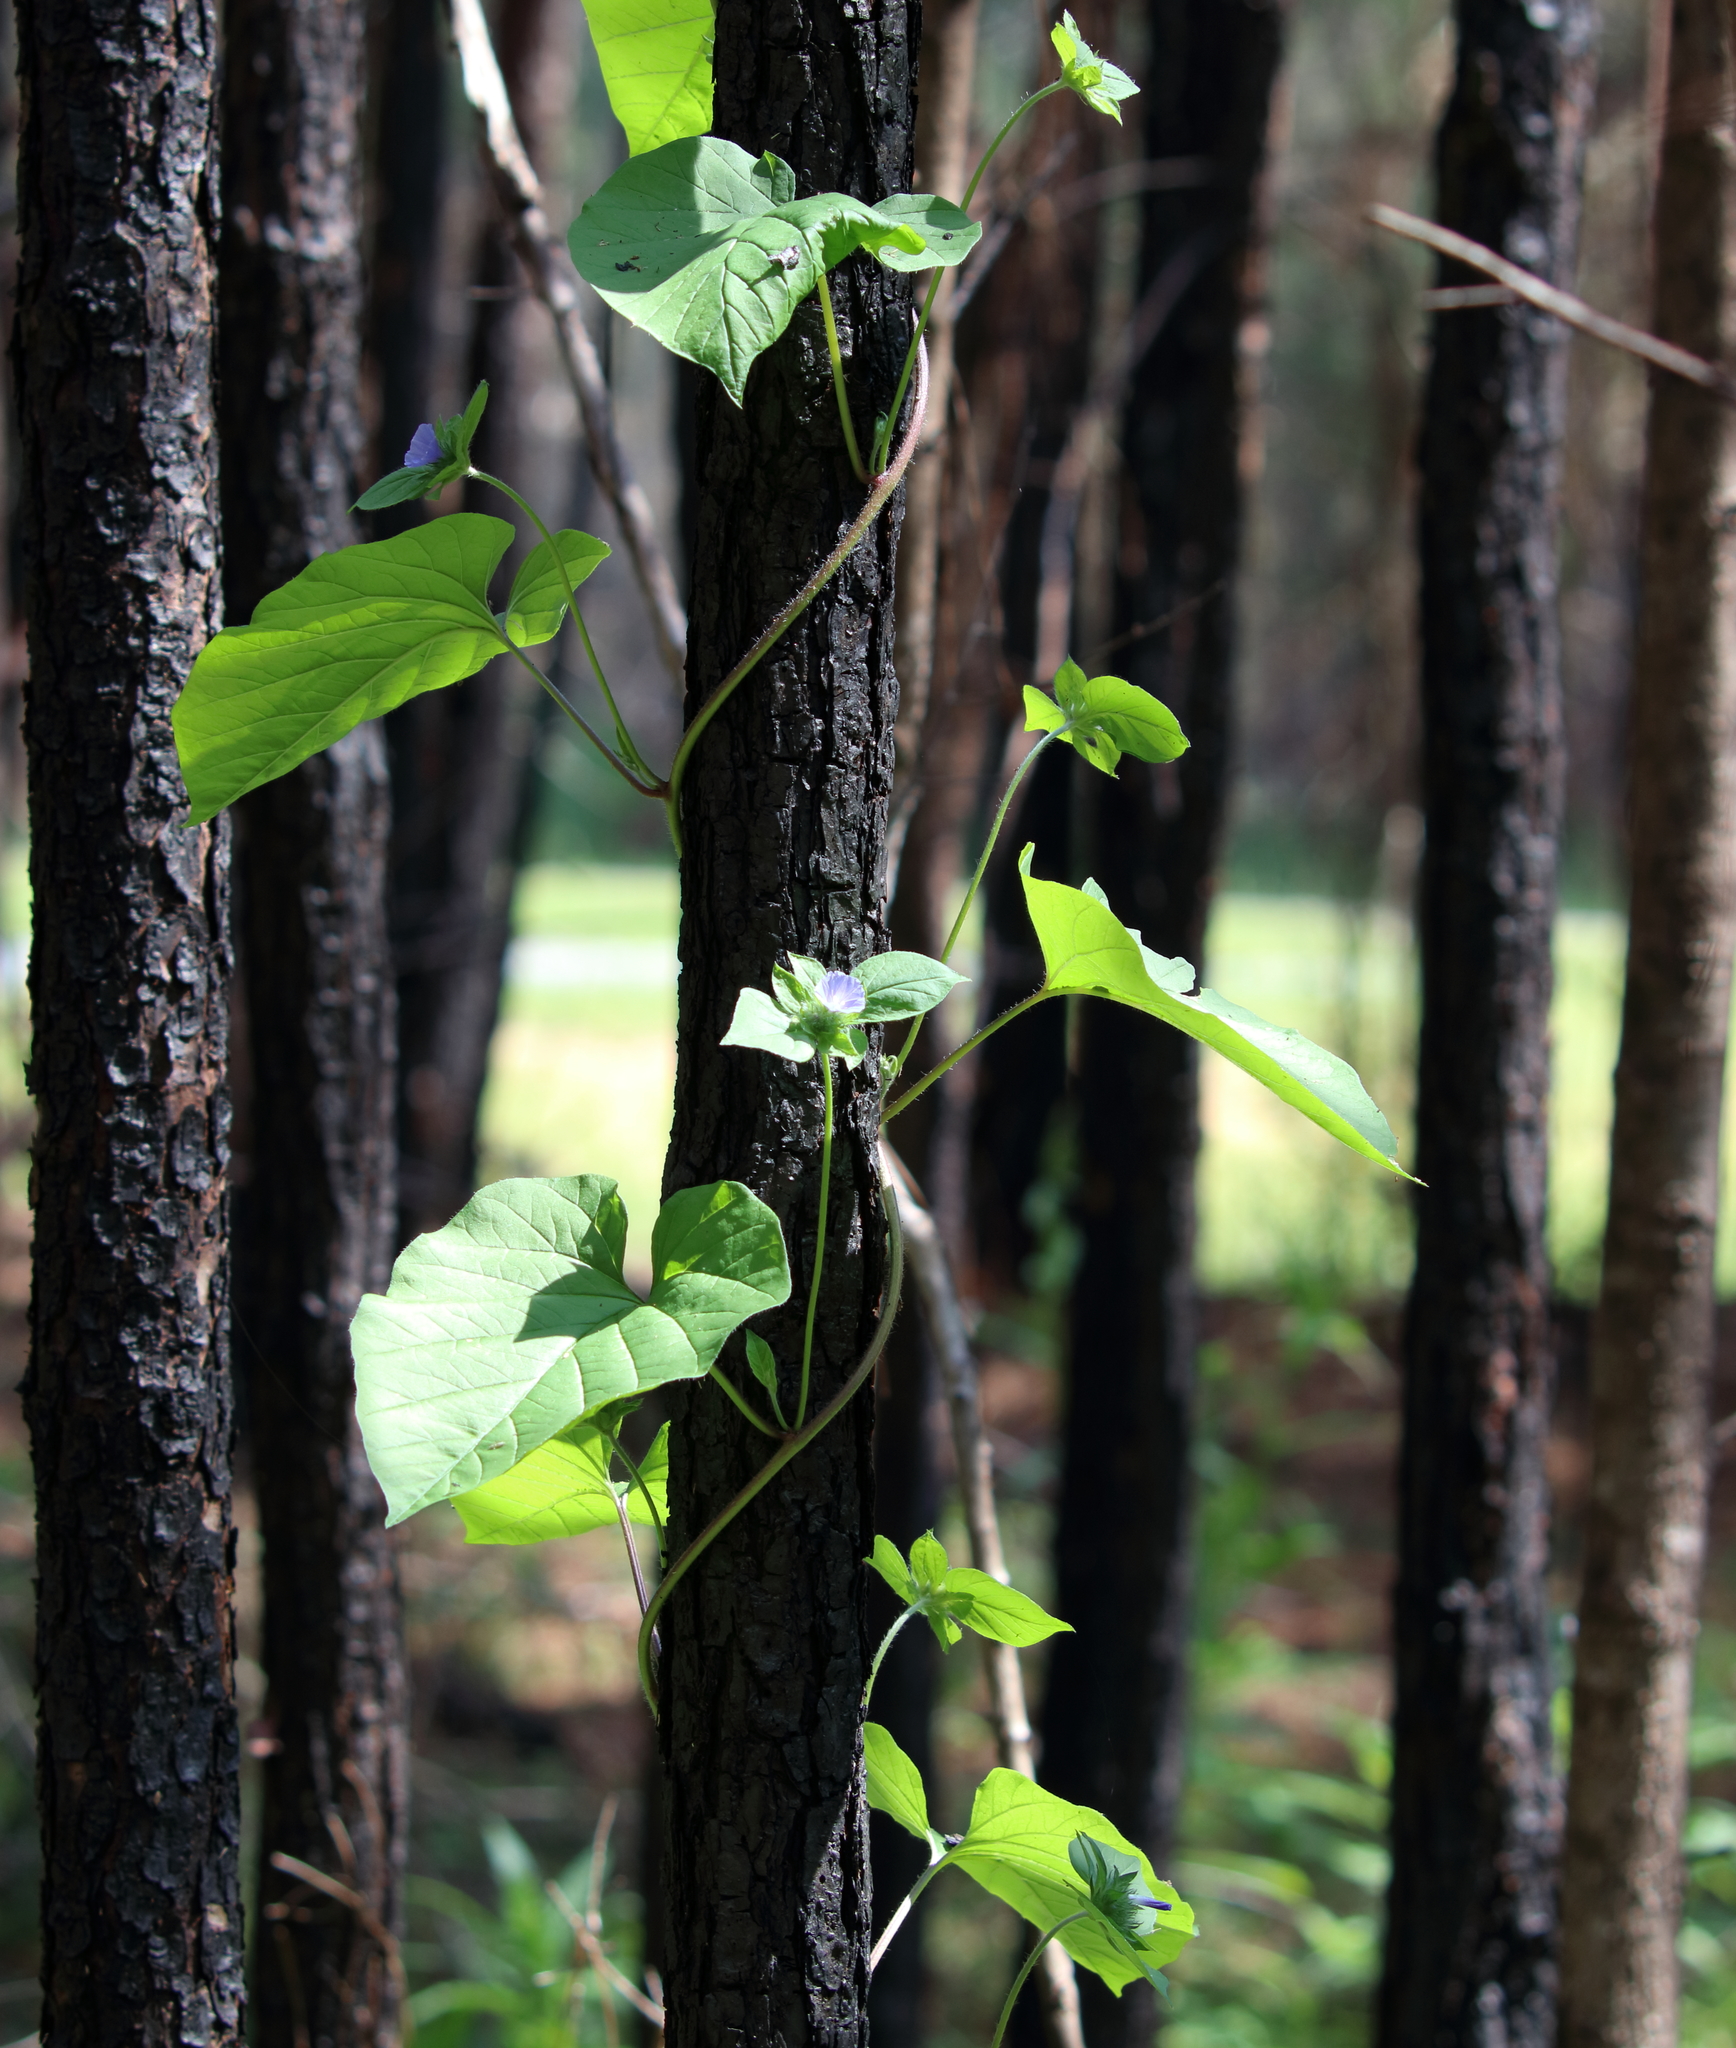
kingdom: Plantae
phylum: Tracheophyta
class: Magnoliopsida
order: Solanales
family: Convolvulaceae
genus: Jacquemontia
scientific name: Jacquemontia tamnifolia
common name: Hairy clustervine
